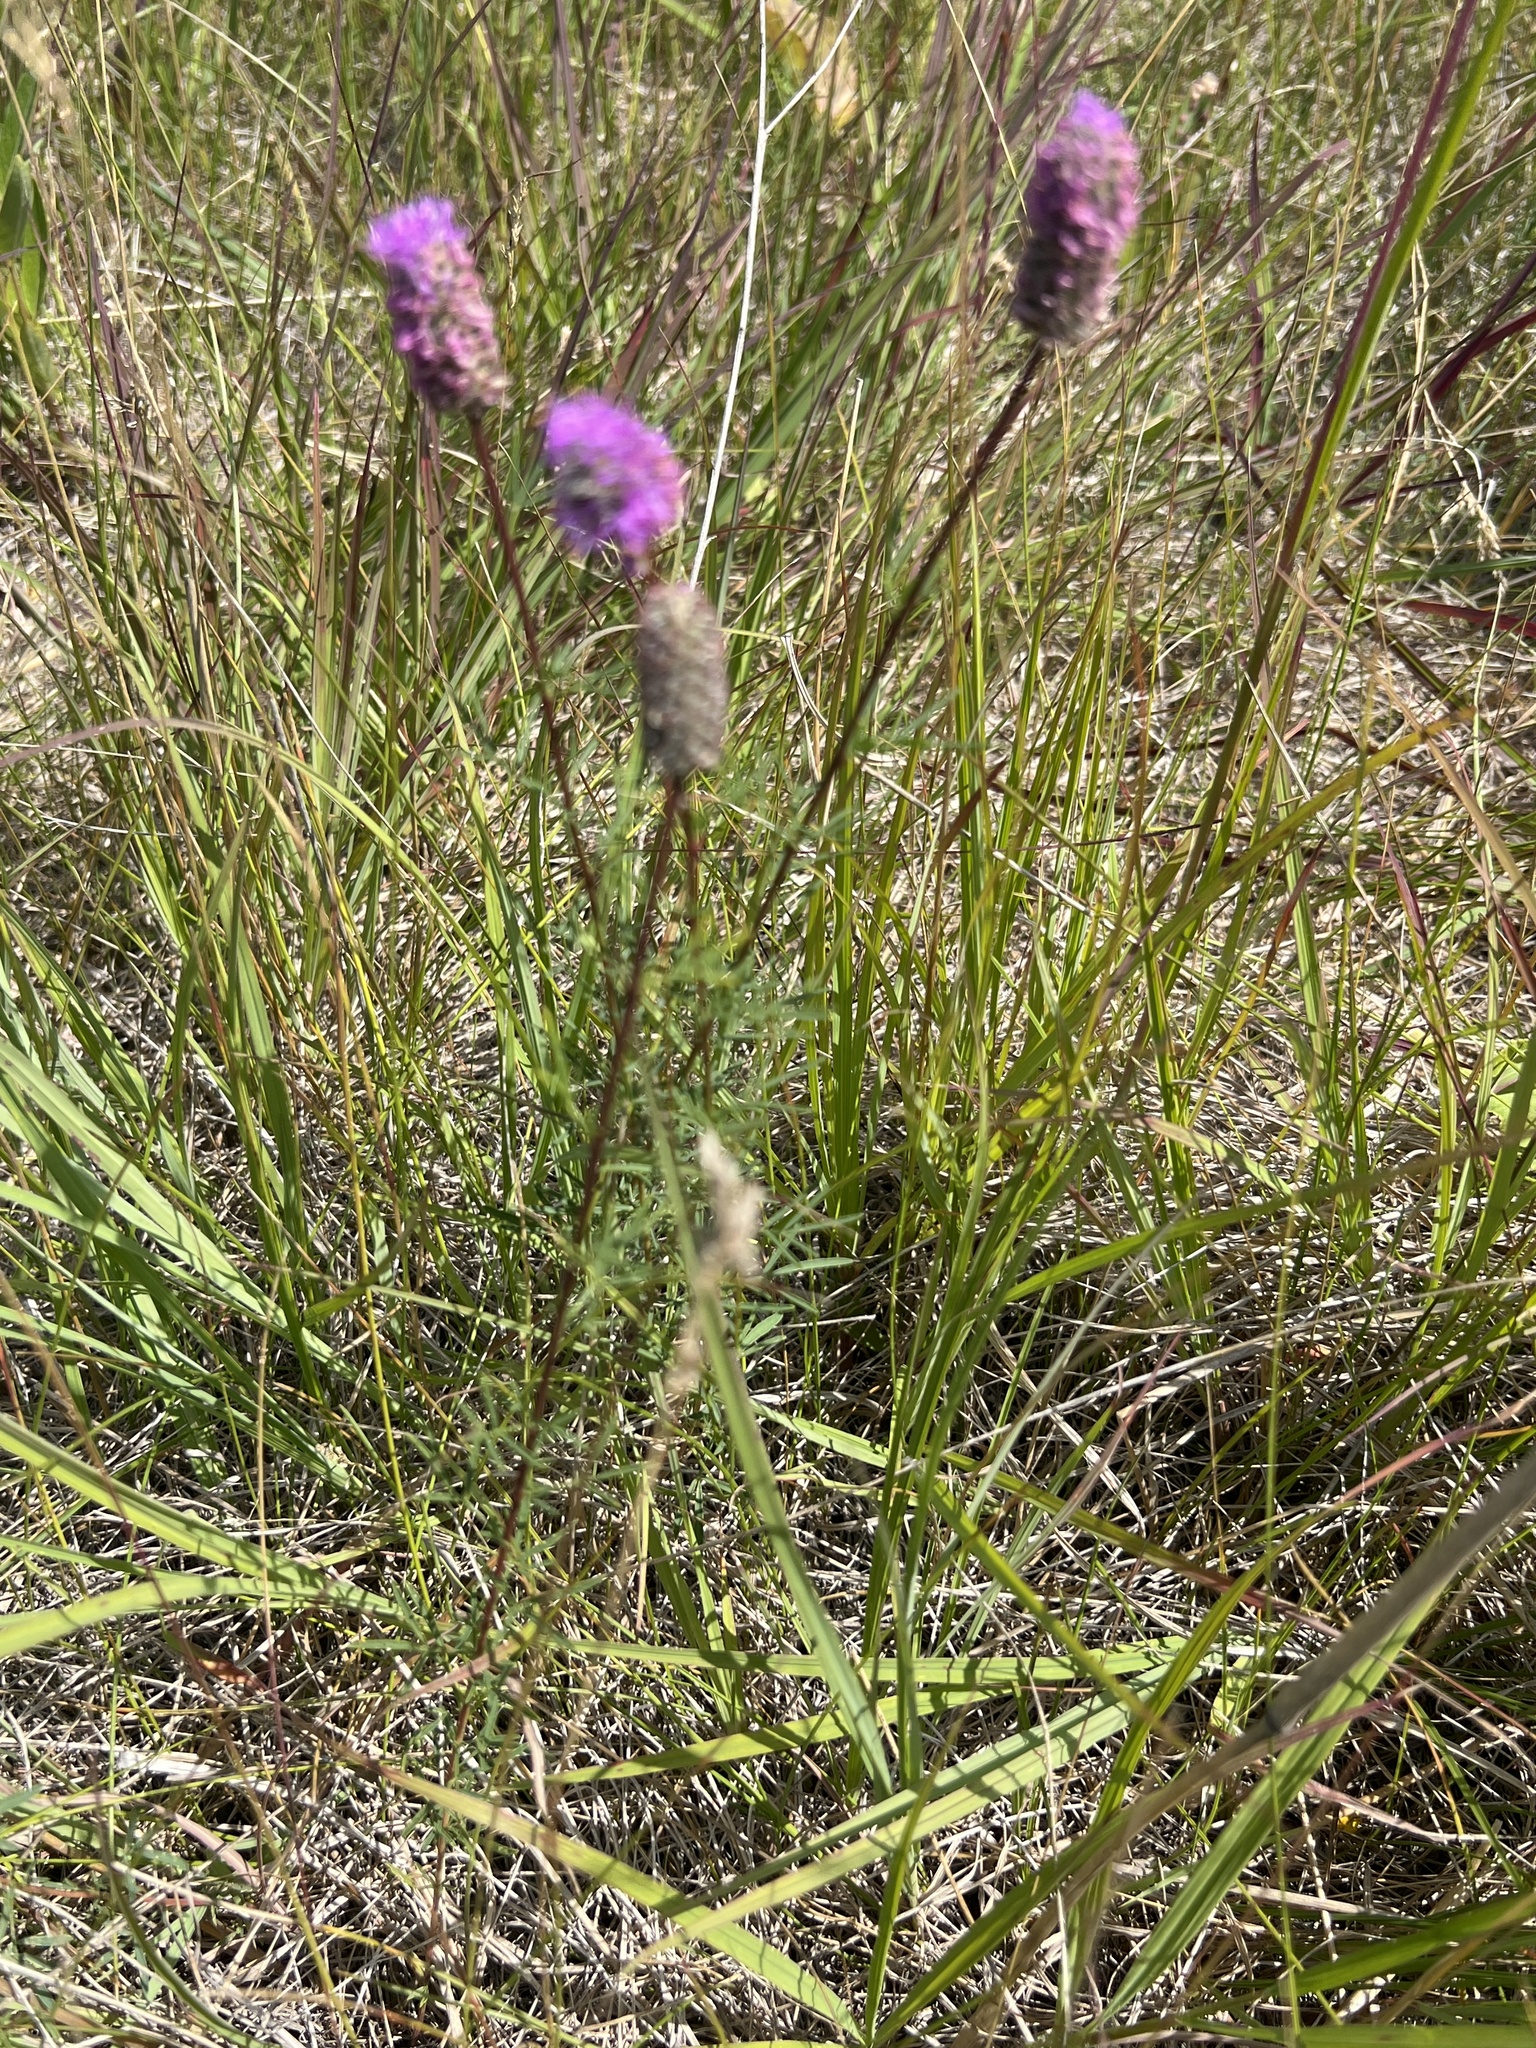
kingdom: Plantae
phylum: Tracheophyta
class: Magnoliopsida
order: Fabales
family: Fabaceae
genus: Dalea
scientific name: Dalea purpurea
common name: Purple prairie-clover
